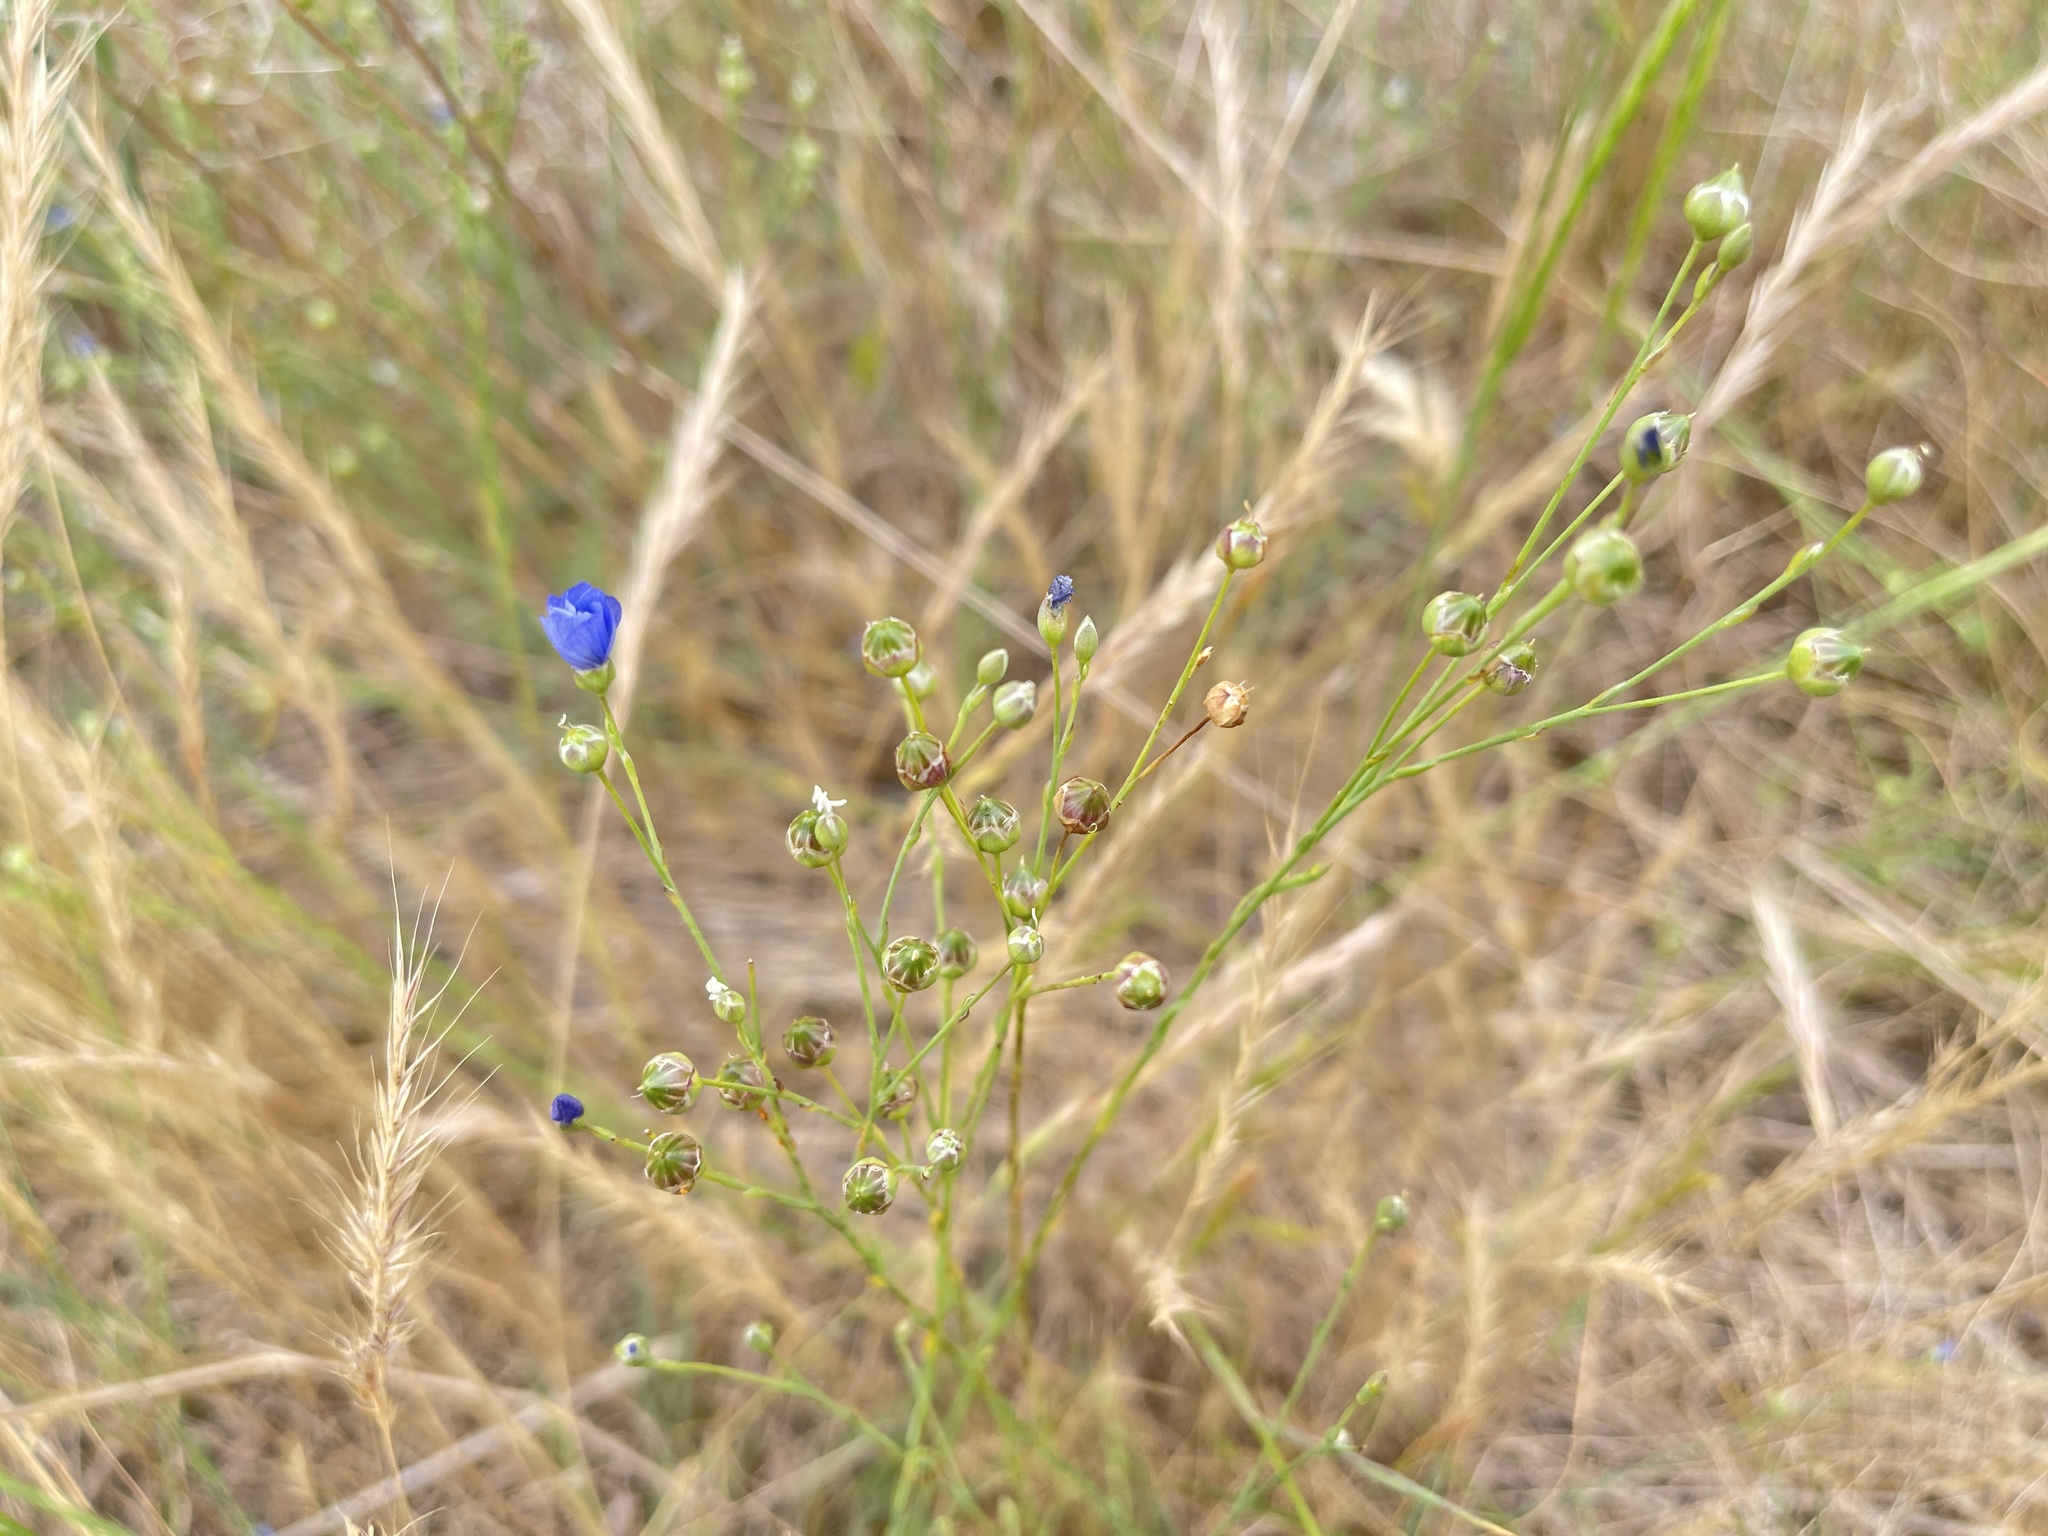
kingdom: Plantae
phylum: Tracheophyta
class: Magnoliopsida
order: Malpighiales
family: Linaceae
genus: Linum
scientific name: Linum marginale
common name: Wild flax
